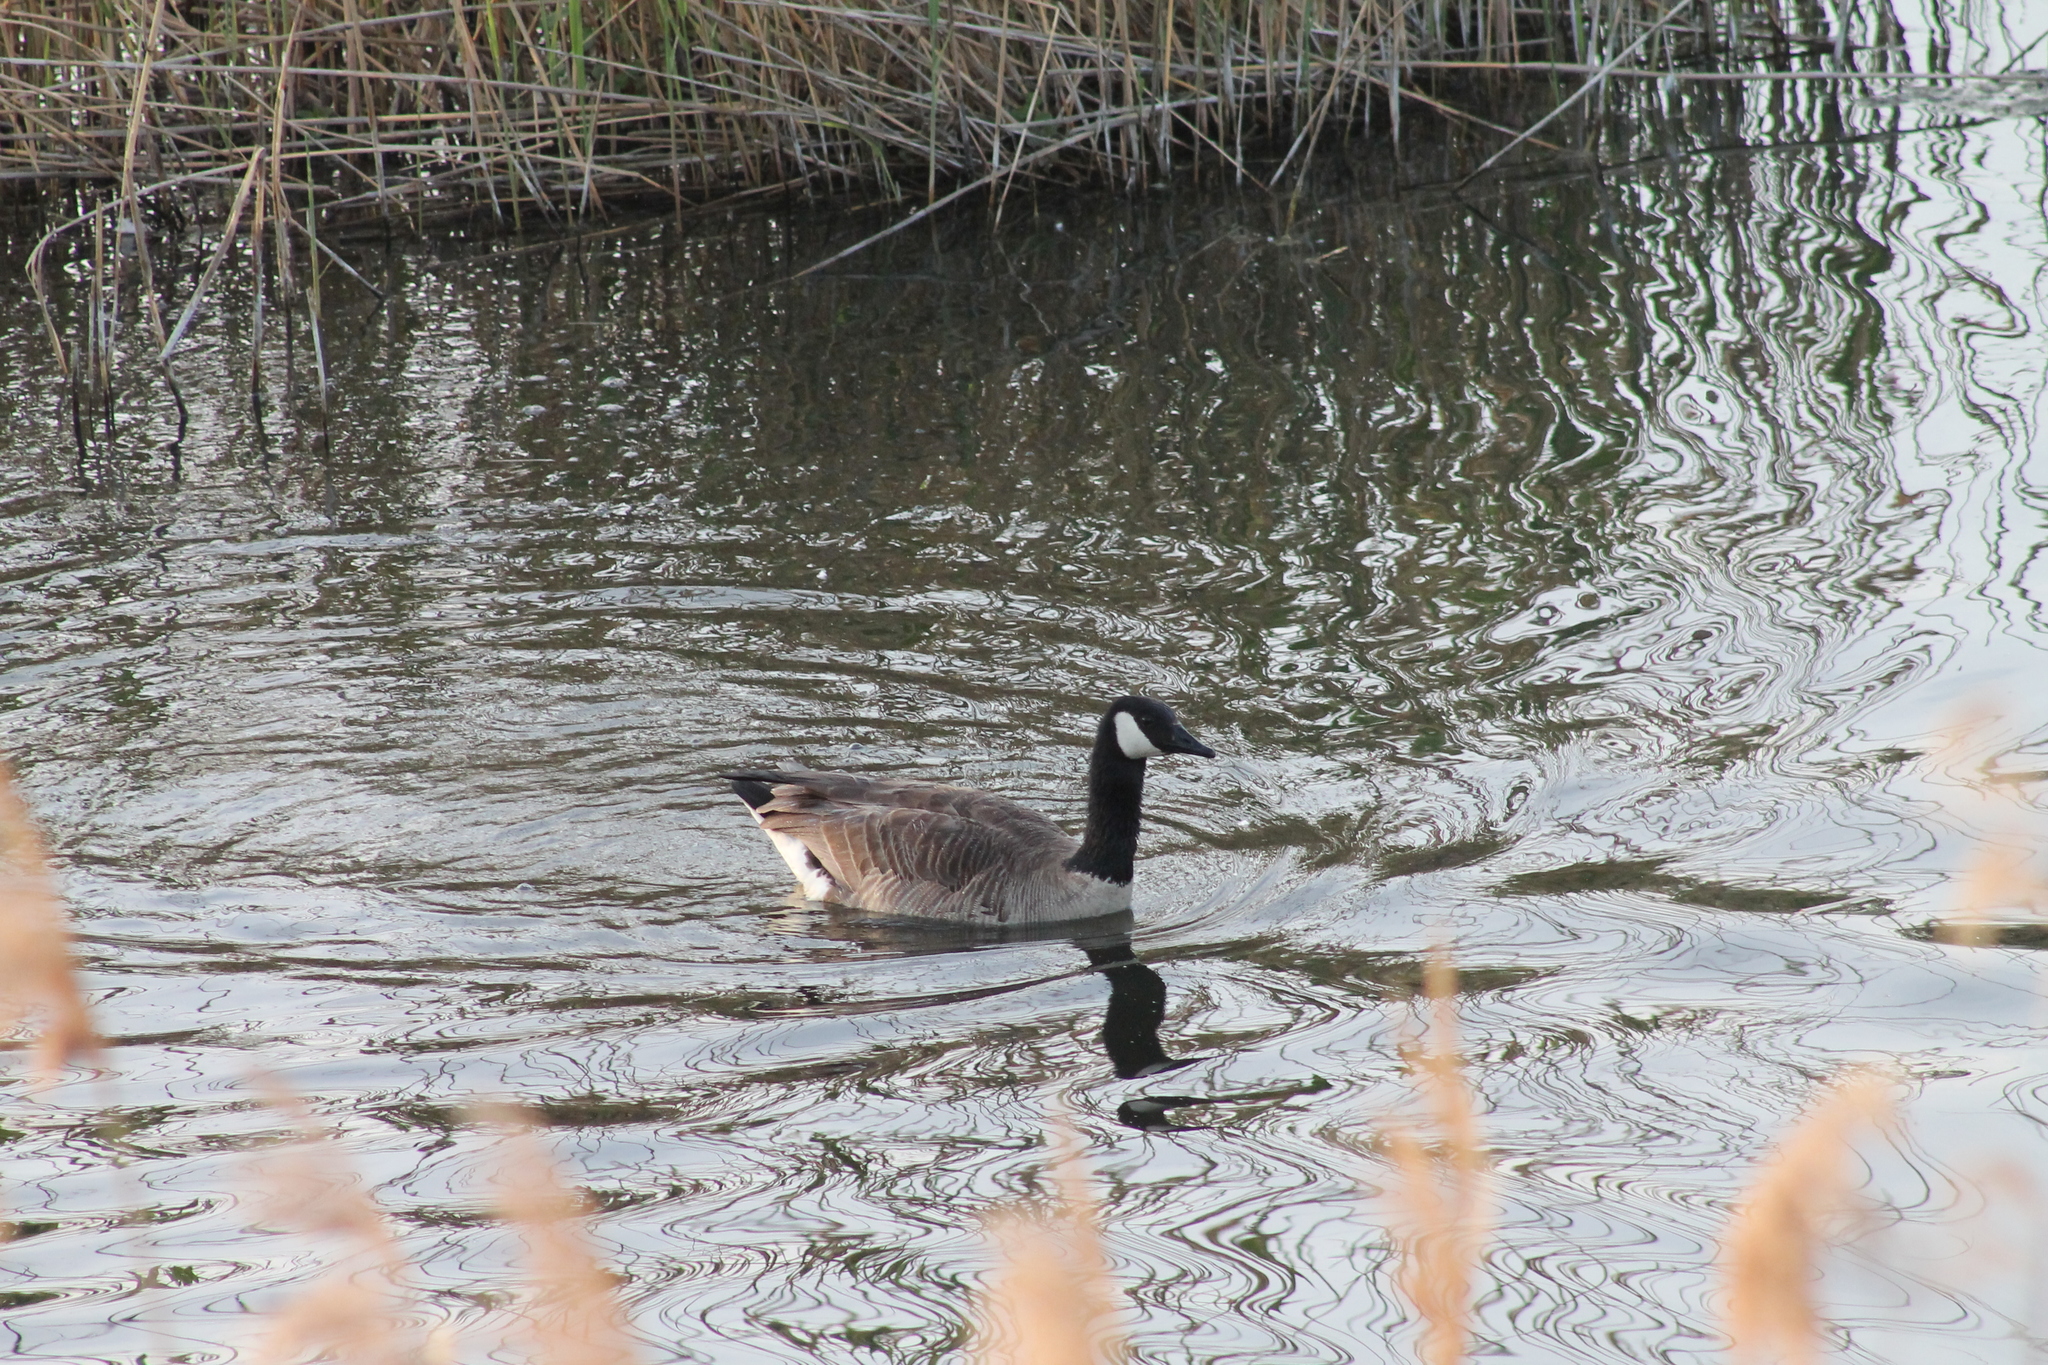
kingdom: Animalia
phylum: Chordata
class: Aves
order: Anseriformes
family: Anatidae
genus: Branta
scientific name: Branta canadensis
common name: Canada goose
